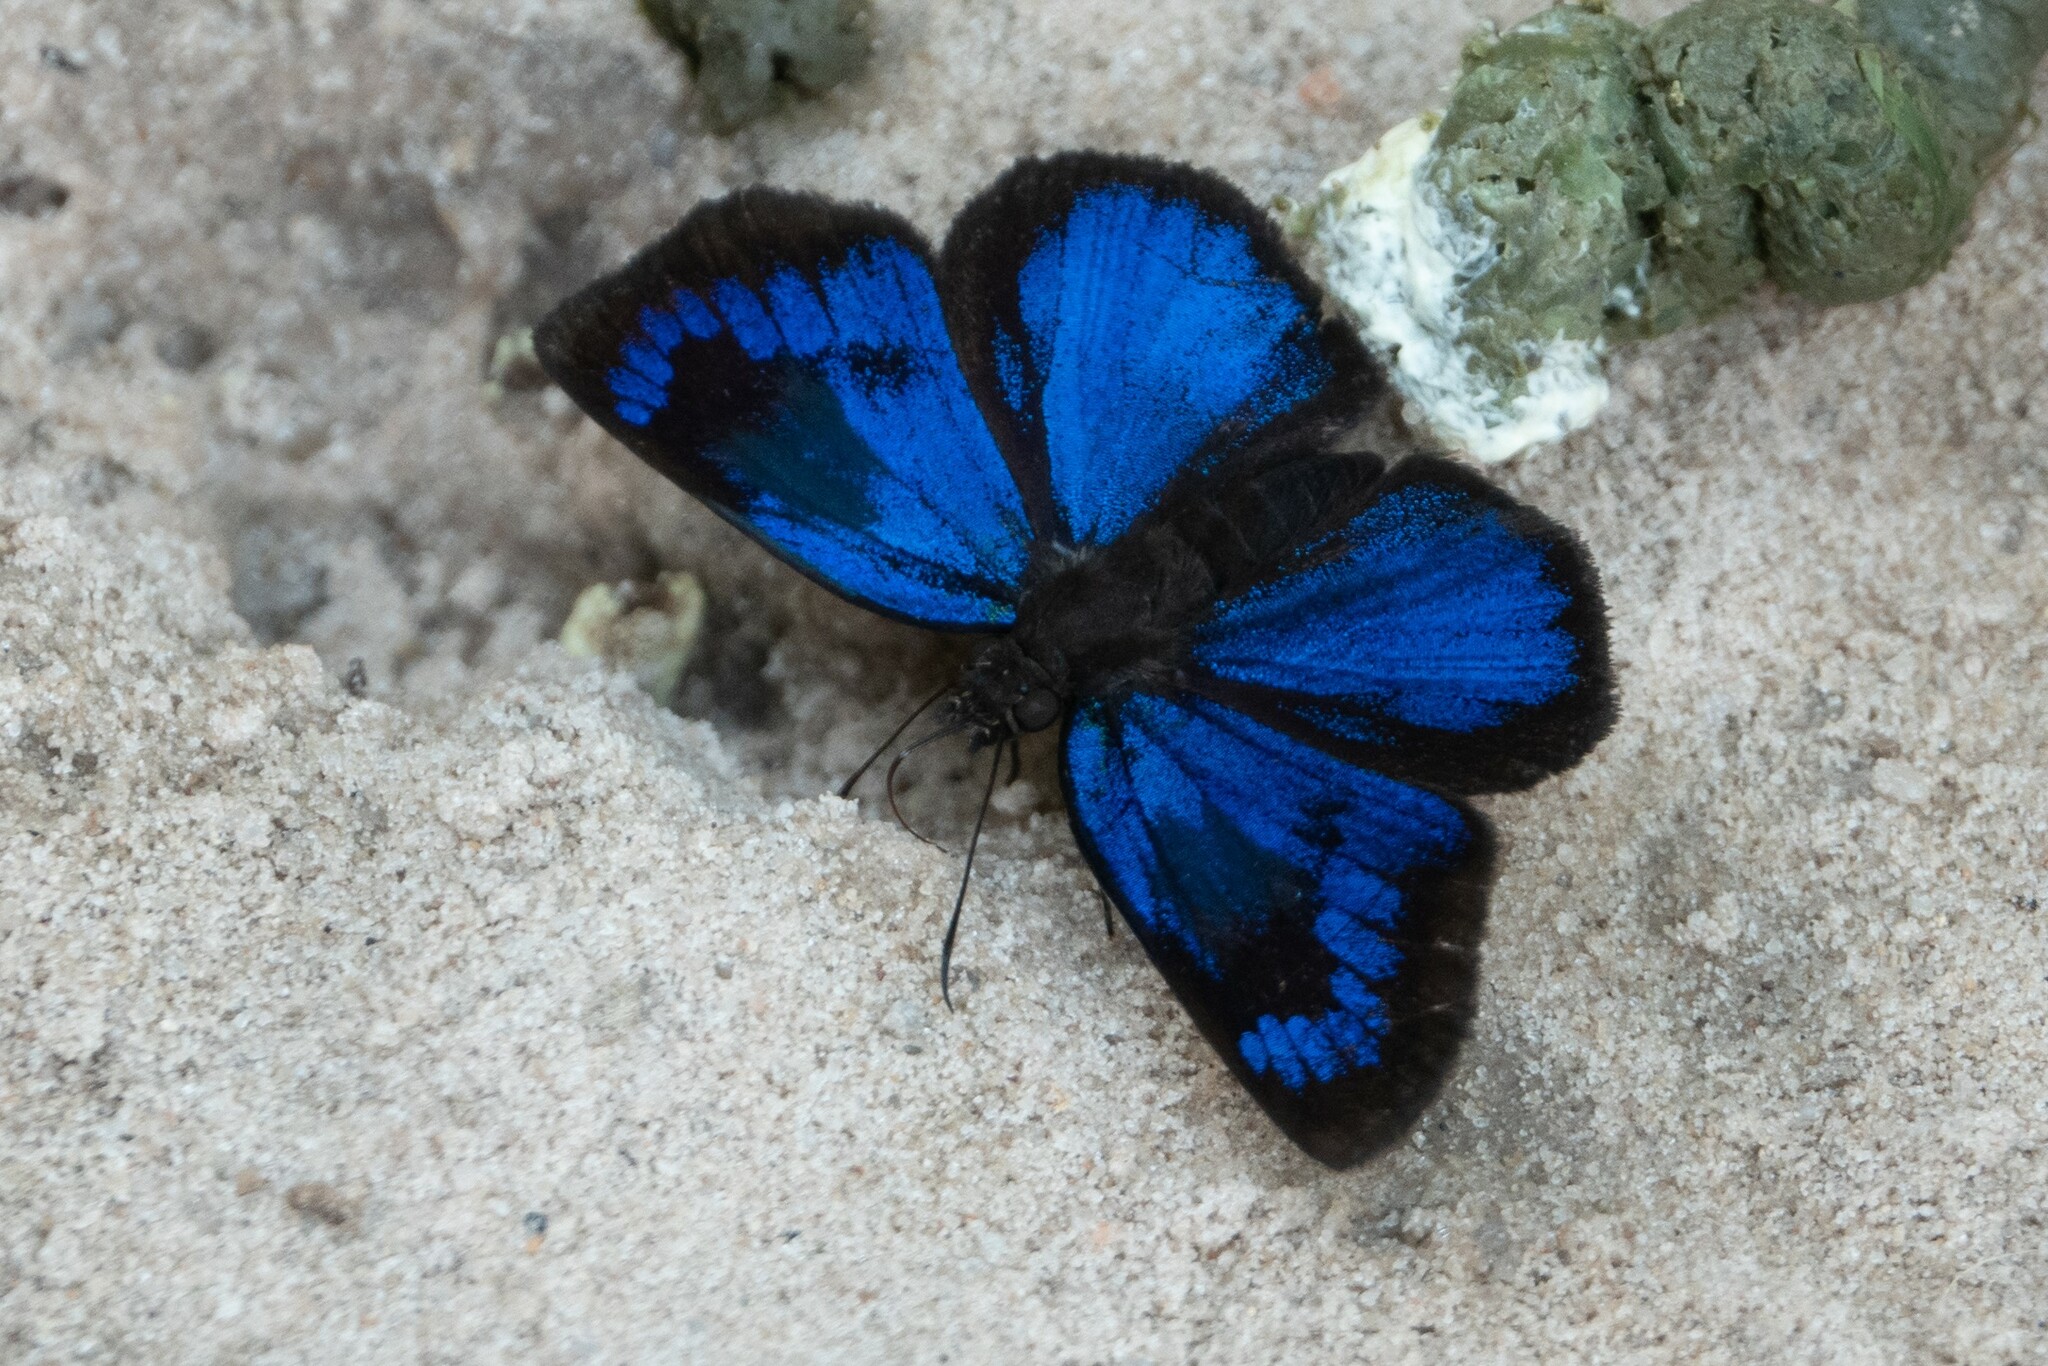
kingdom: Animalia
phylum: Arthropoda
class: Insecta
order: Lepidoptera
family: Hesperiidae
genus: Paches
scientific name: Paches loxus
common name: Glorious blue-skipper
